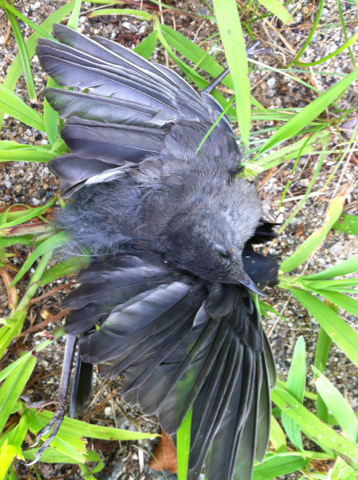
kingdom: Animalia
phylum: Chordata
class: Aves
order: Passeriformes
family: Mimidae
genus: Dumetella
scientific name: Dumetella carolinensis
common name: Gray catbird
